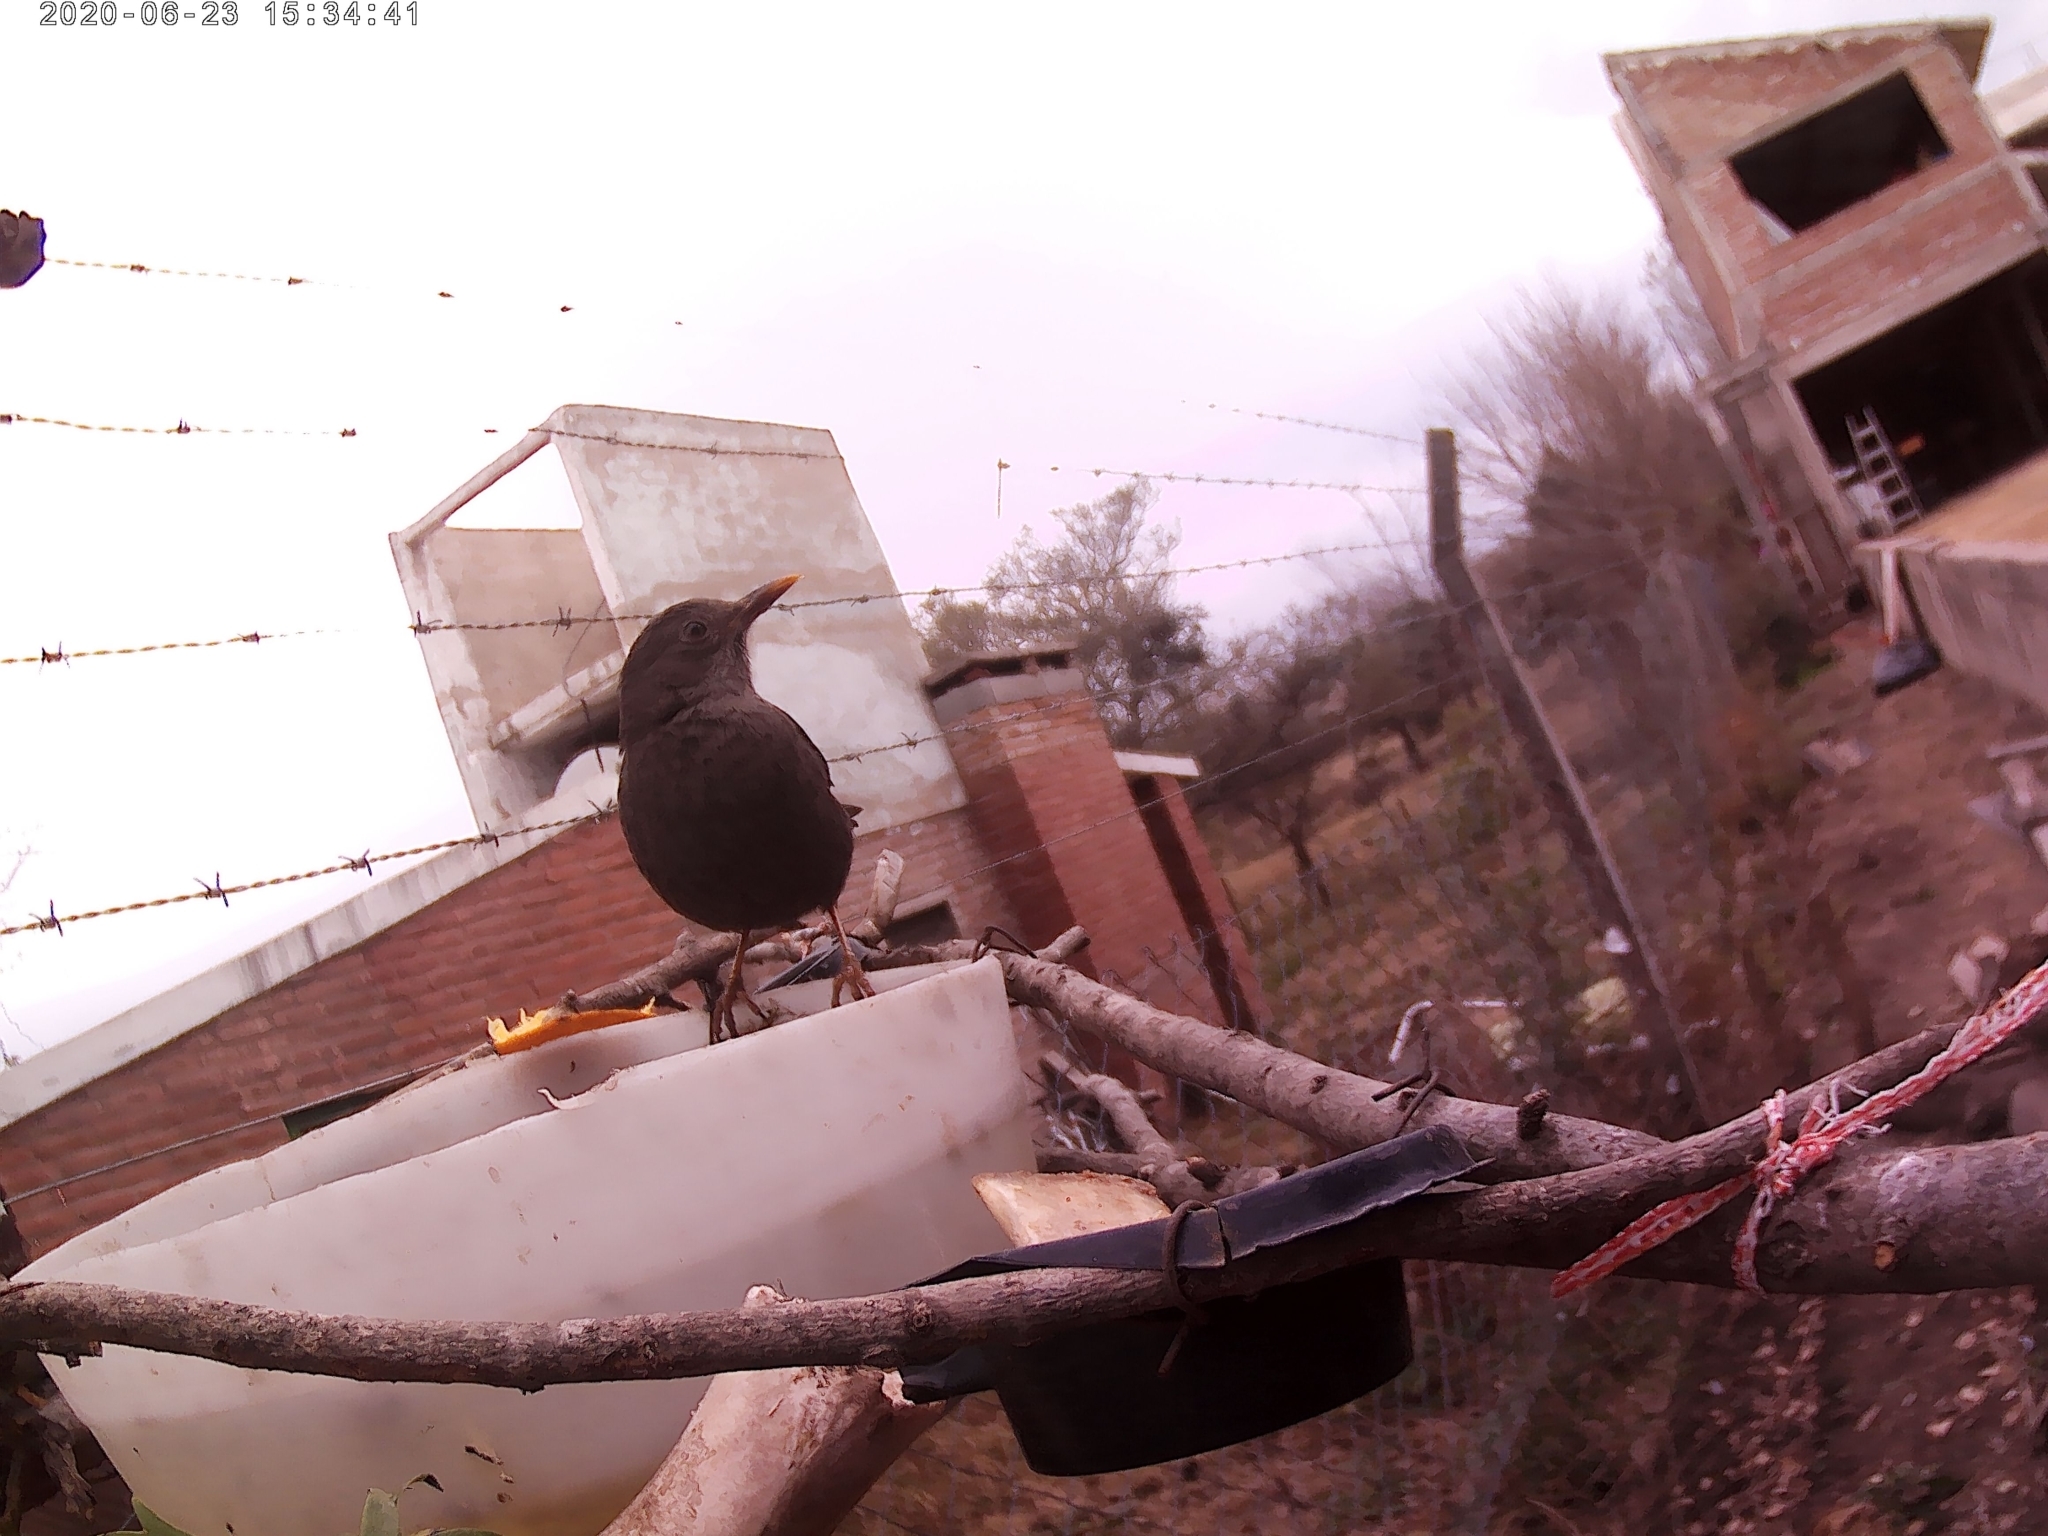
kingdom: Animalia
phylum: Chordata
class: Aves
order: Passeriformes
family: Turdidae
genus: Turdus
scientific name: Turdus chiguanco
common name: Chiguanco thrush
